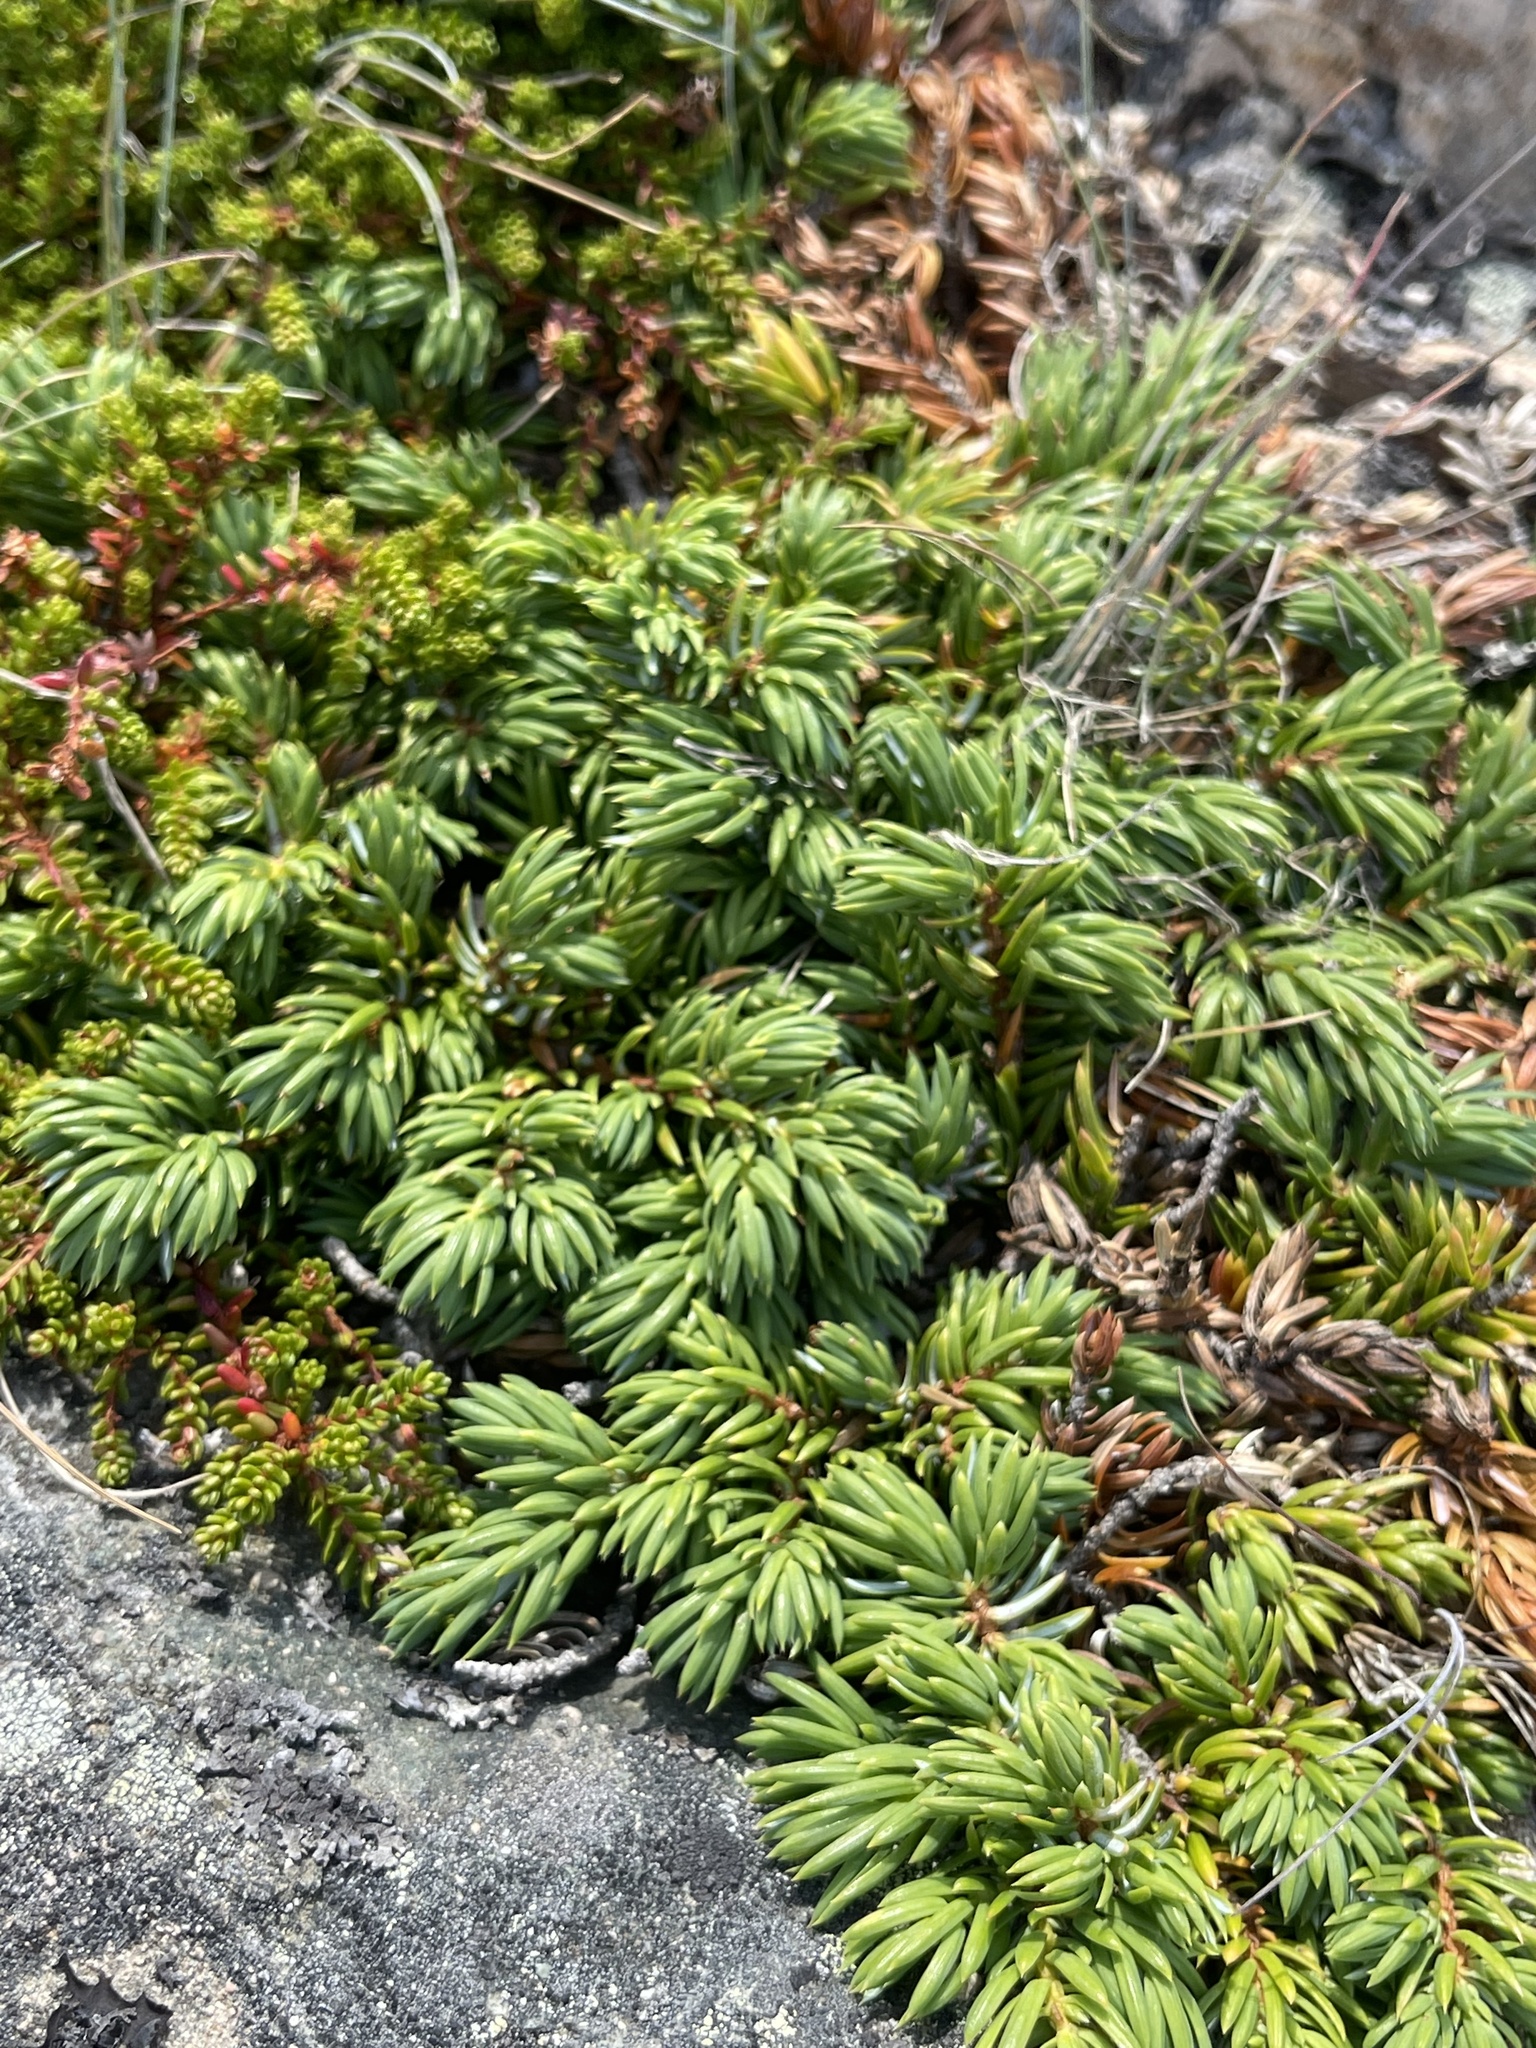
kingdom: Plantae
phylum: Tracheophyta
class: Pinopsida
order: Pinales
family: Cupressaceae
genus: Juniperus
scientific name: Juniperus communis
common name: Common juniper
